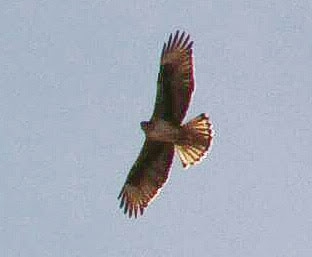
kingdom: Animalia
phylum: Chordata
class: Aves
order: Accipitriformes
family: Accipitridae
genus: Aquila
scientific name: Aquila fasciata
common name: Bonelli's eagle
